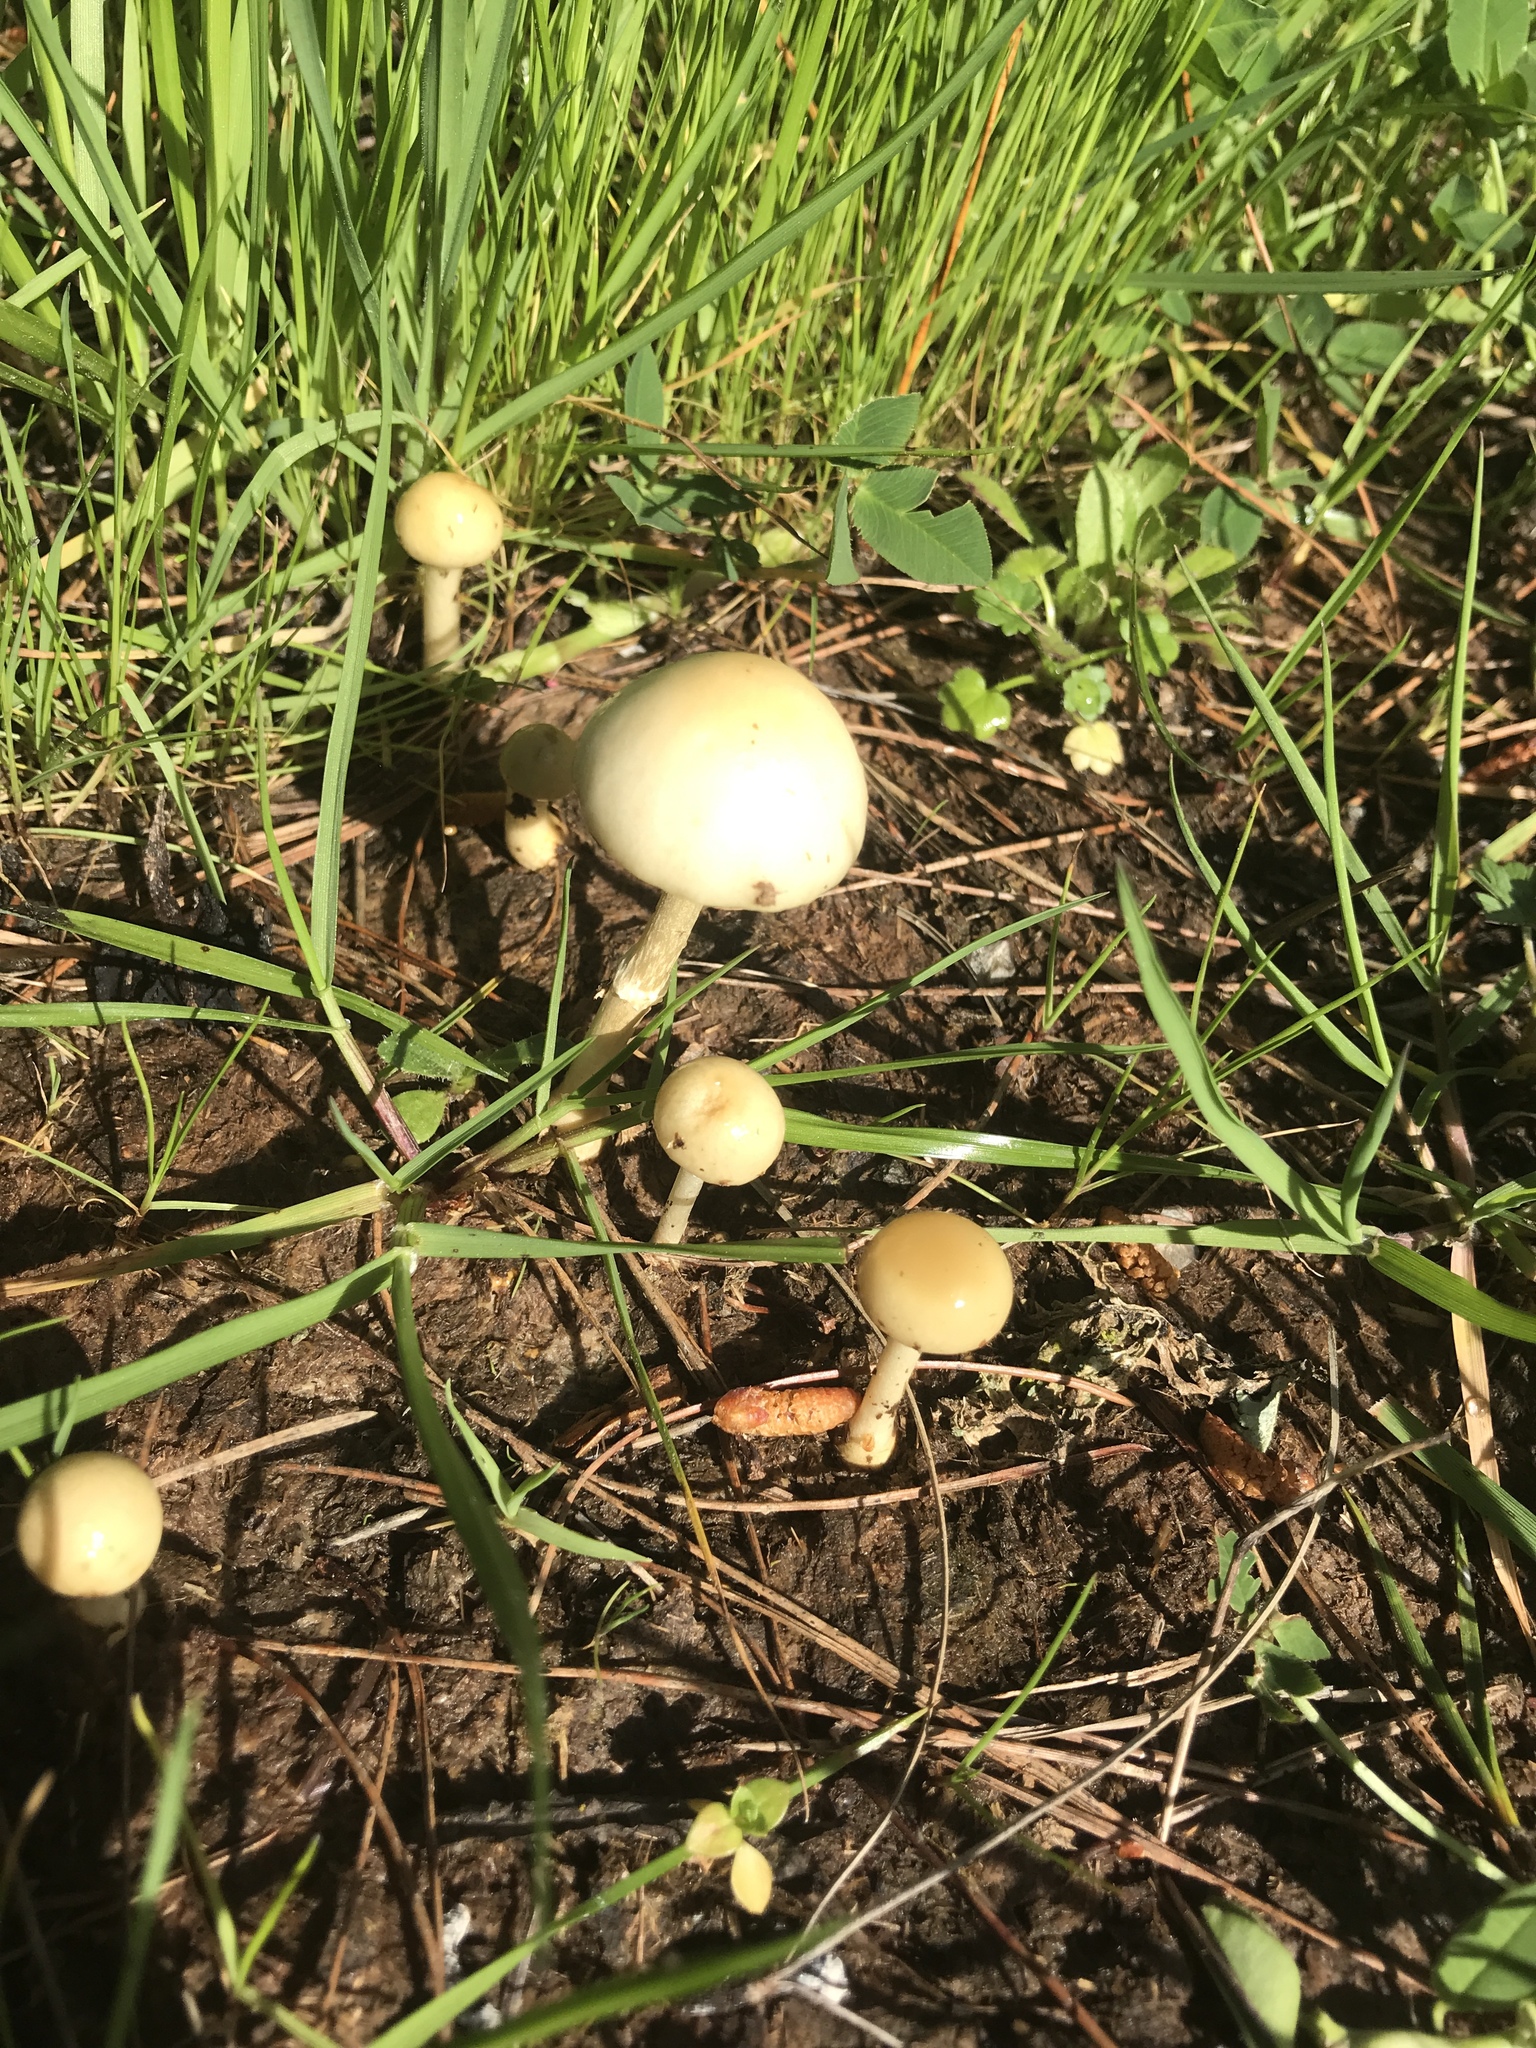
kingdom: Fungi
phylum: Basidiomycota
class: Agaricomycetes
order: Agaricales
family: Strophariaceae
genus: Protostropharia
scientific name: Protostropharia dorsipora
